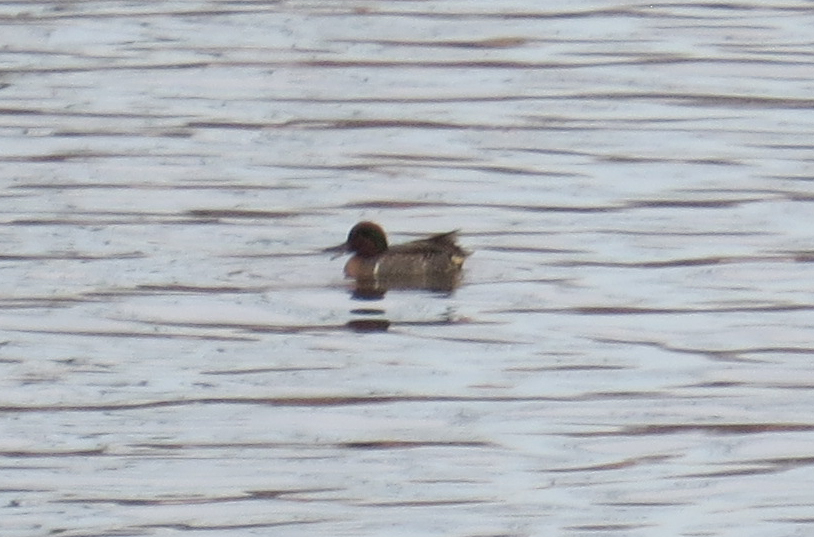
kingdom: Animalia
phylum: Chordata
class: Aves
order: Anseriformes
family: Anatidae
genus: Anas
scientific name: Anas crecca
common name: Eurasian teal
